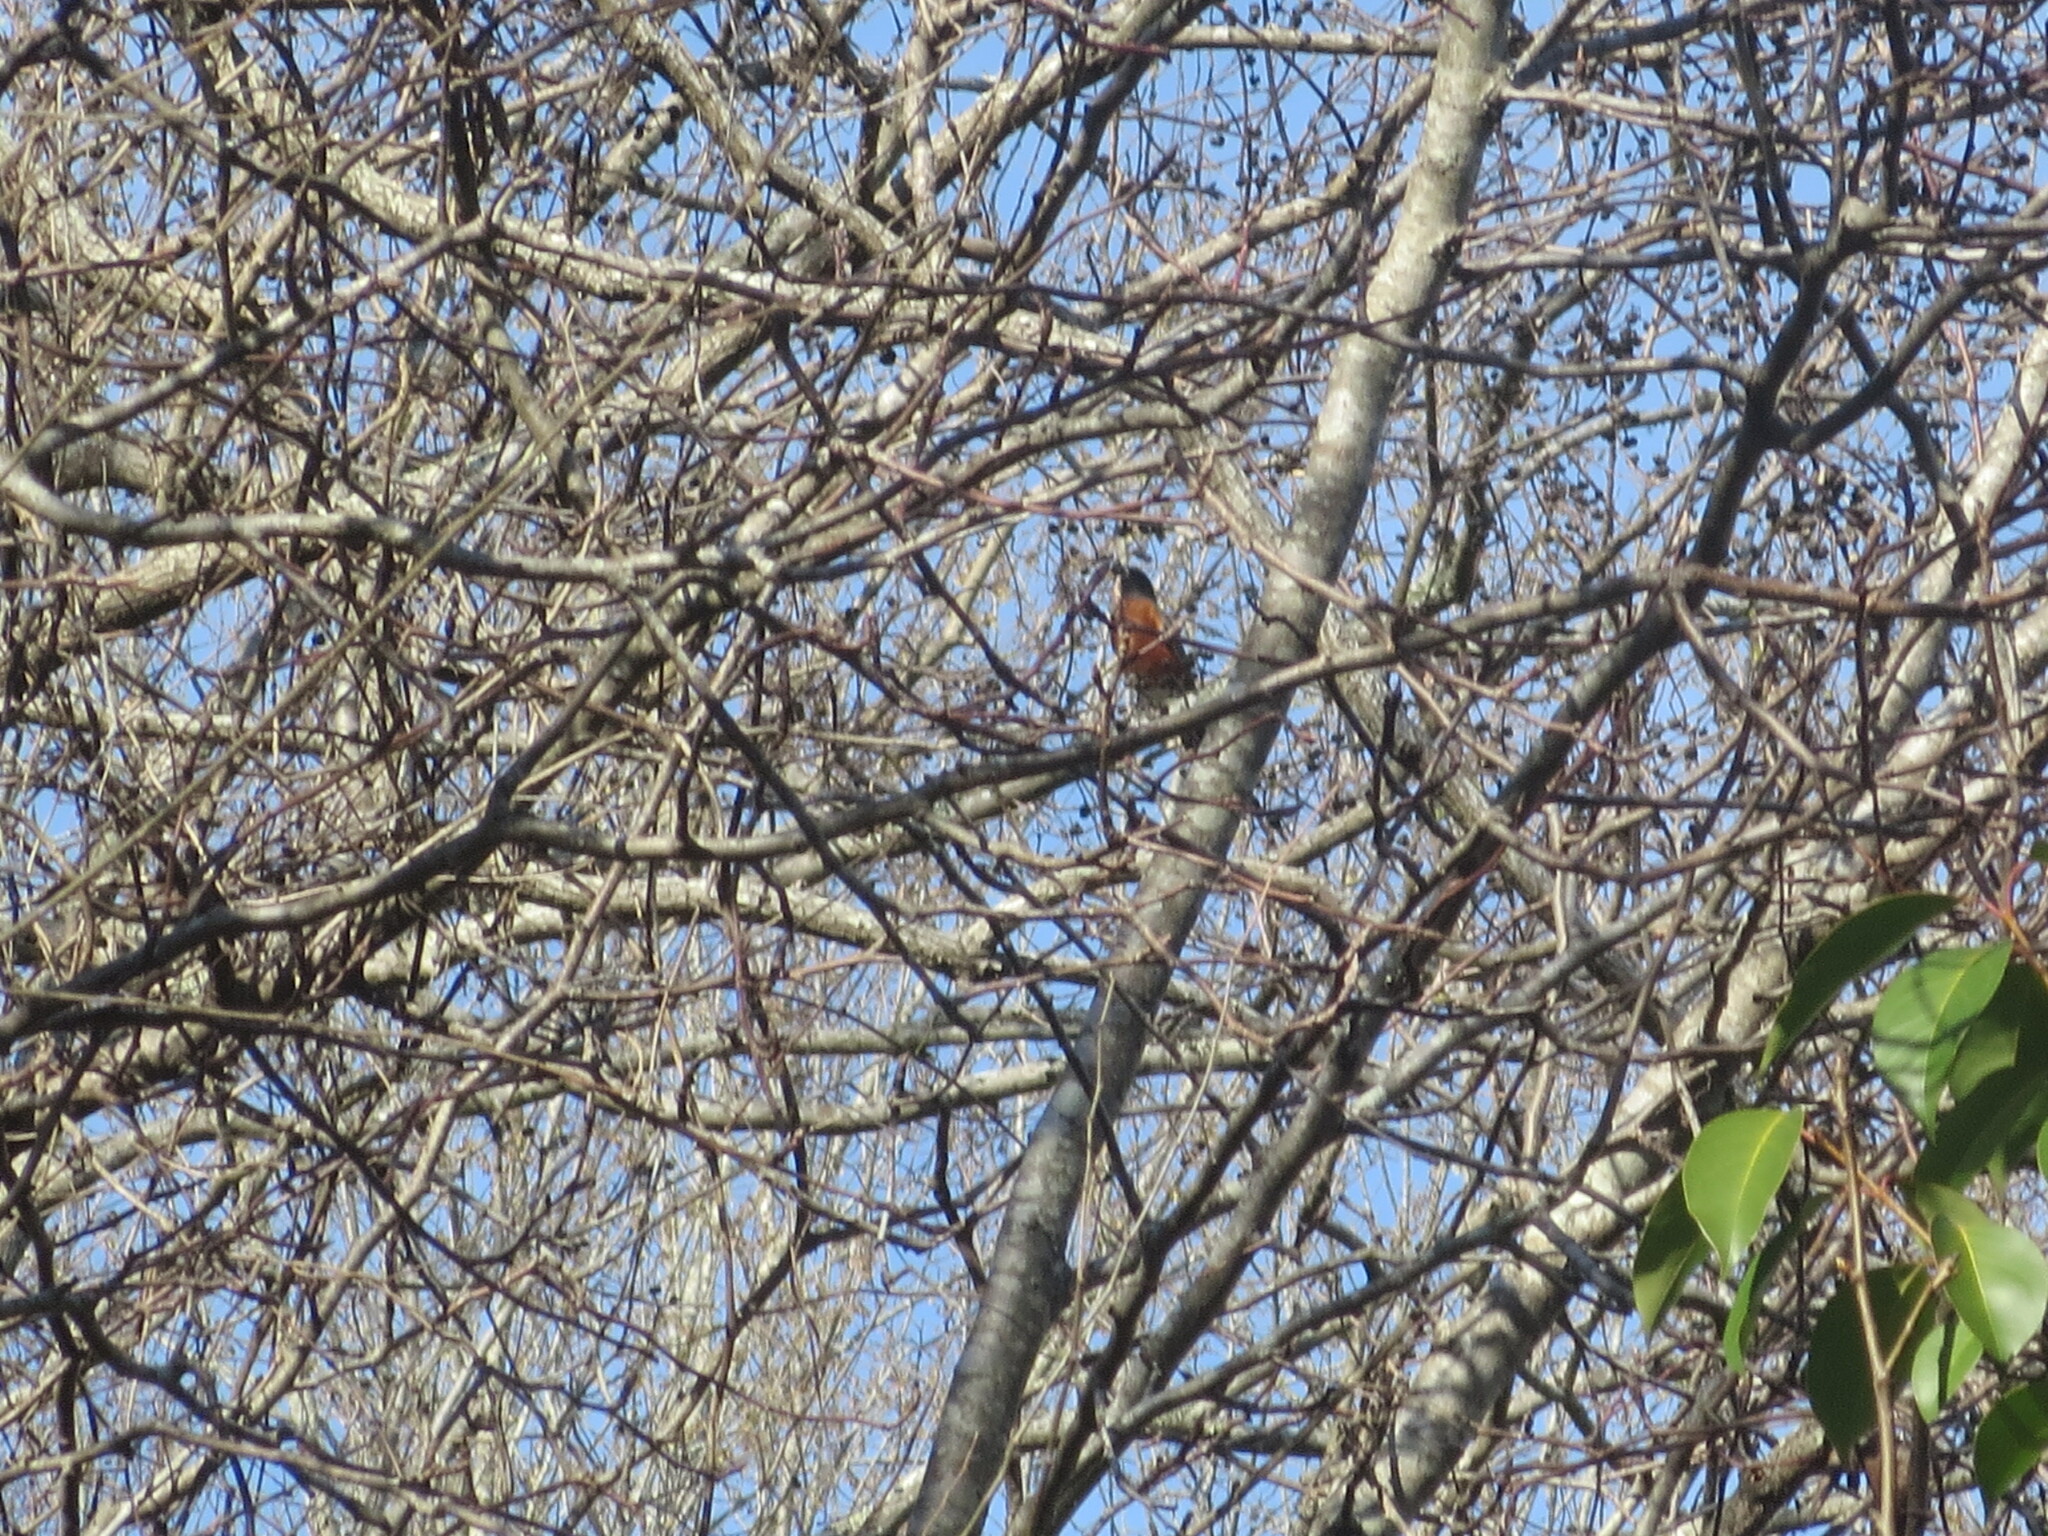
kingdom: Animalia
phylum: Chordata
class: Aves
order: Passeriformes
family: Turdidae
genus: Turdus
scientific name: Turdus migratorius
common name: American robin
